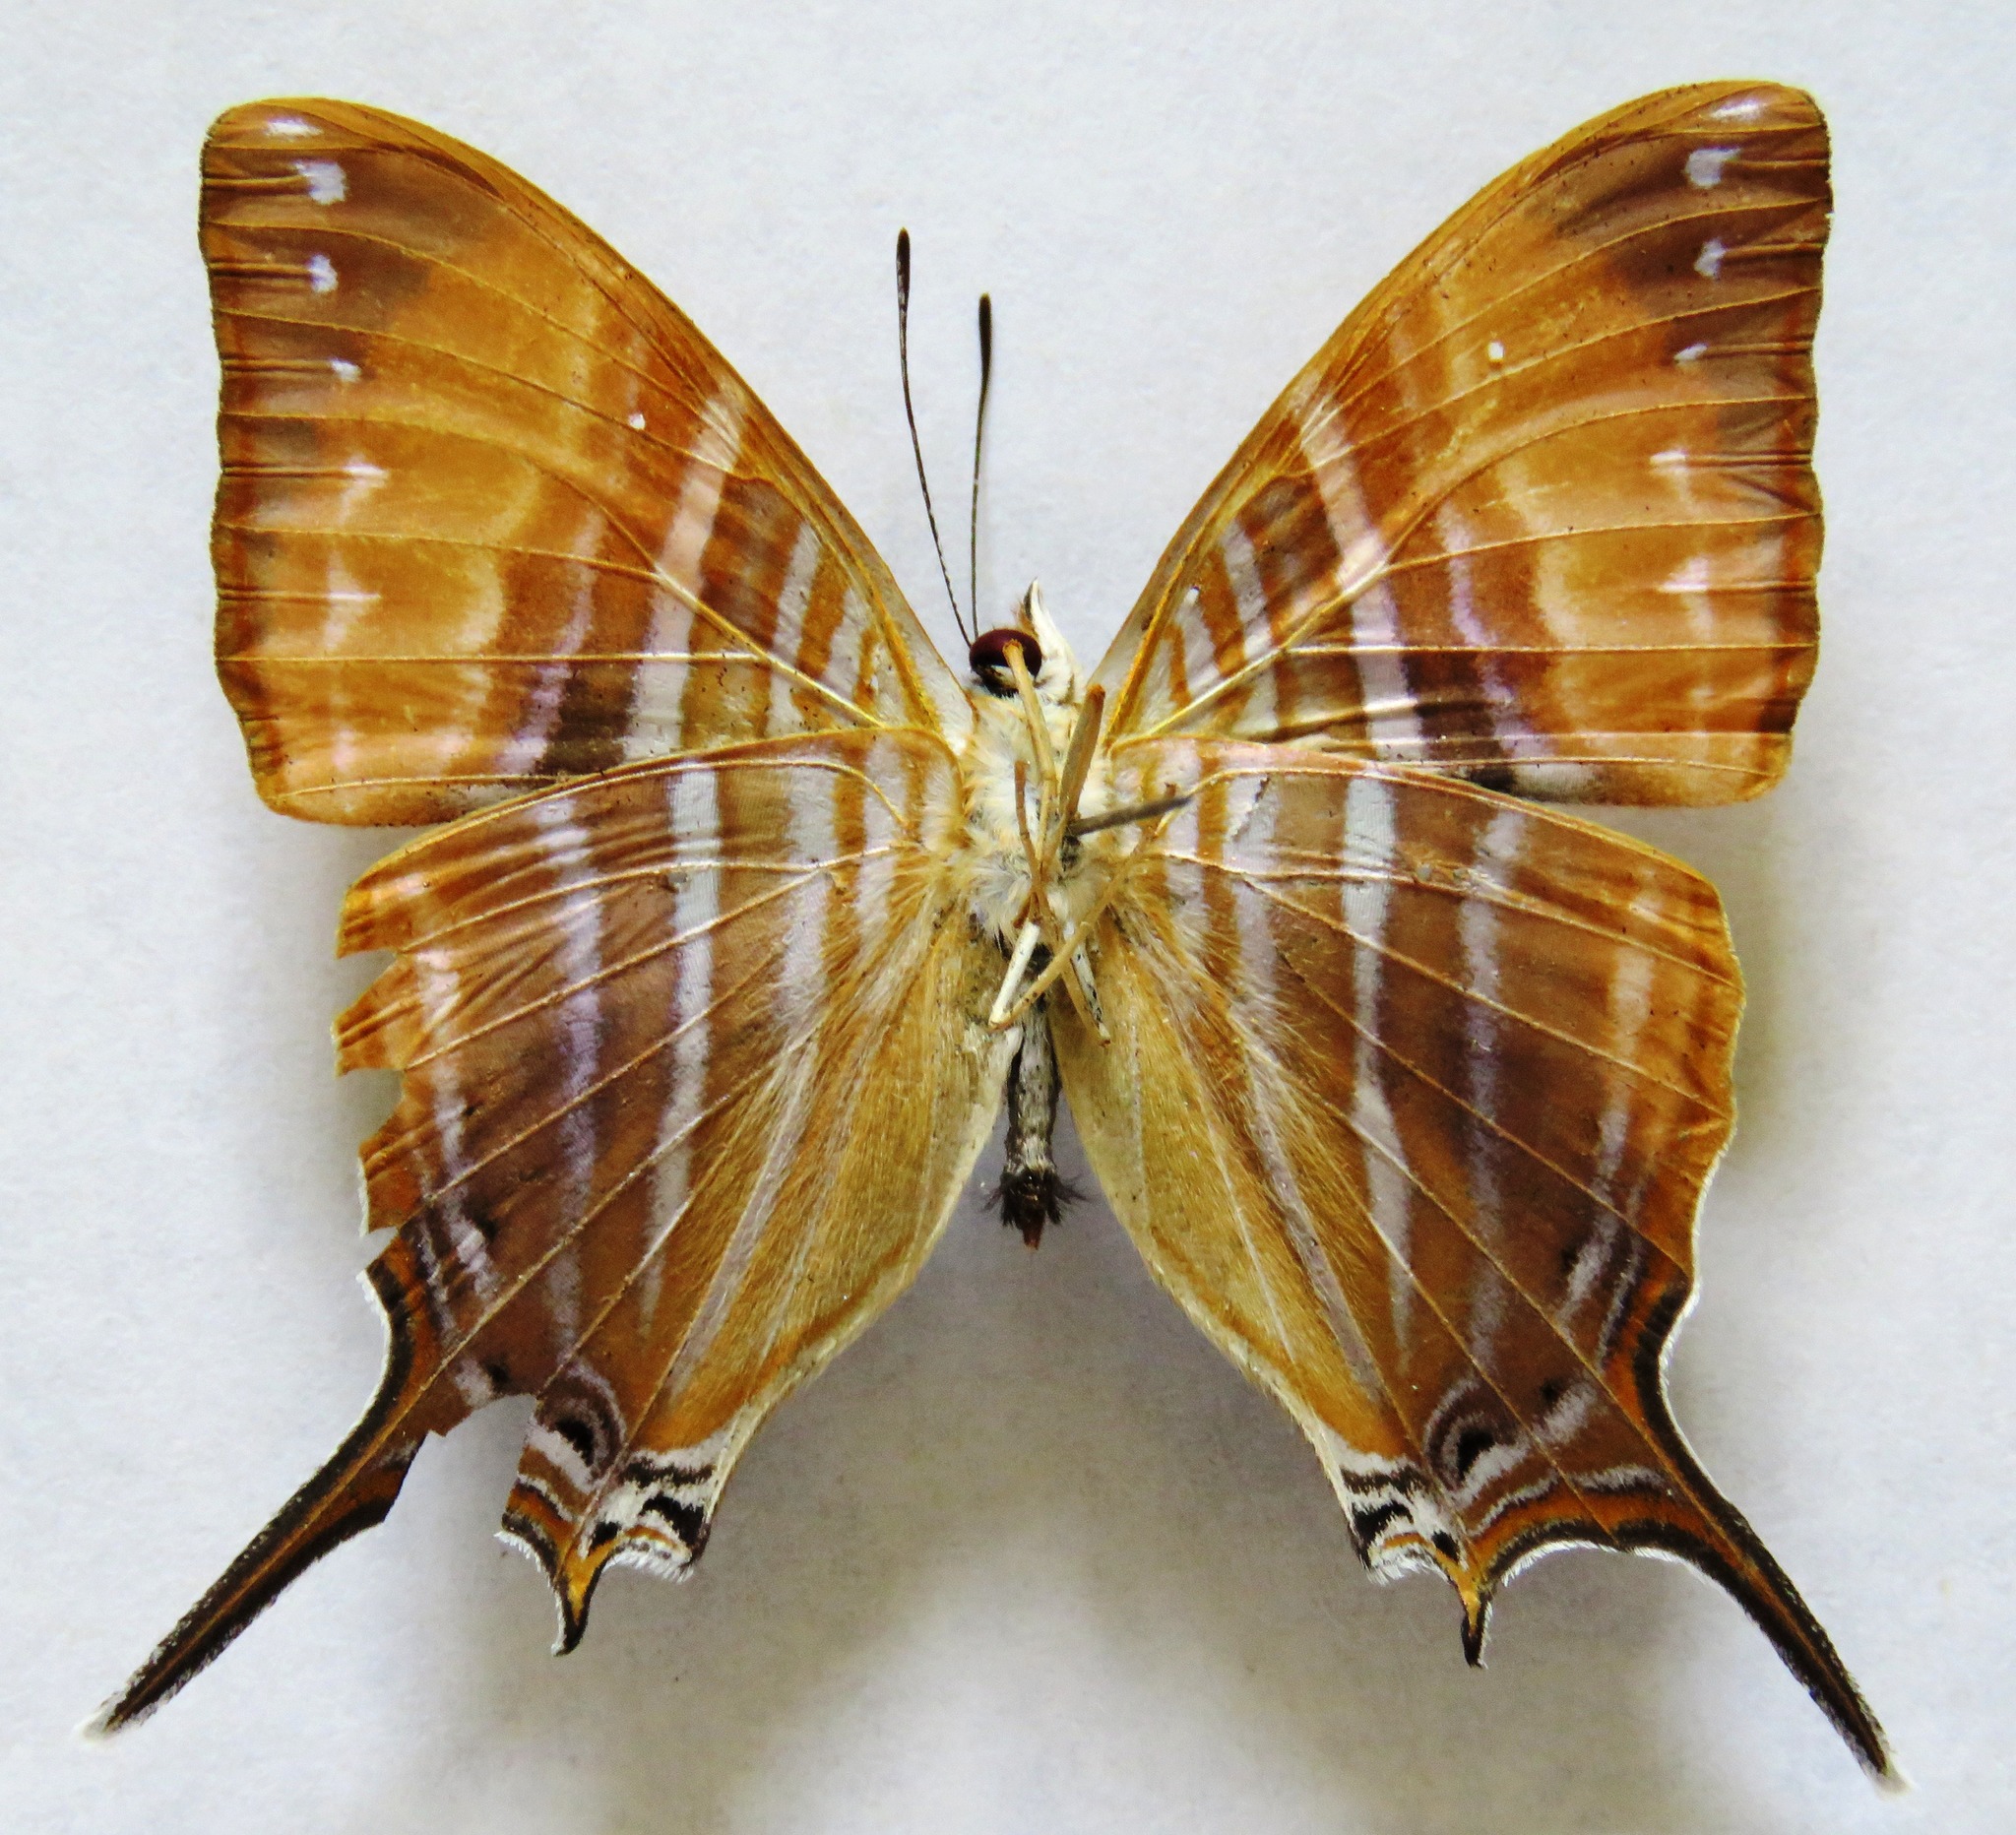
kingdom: Animalia
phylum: Arthropoda
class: Insecta
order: Lepidoptera
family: Nymphalidae
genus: Marpesia
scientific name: Marpesia marcella
